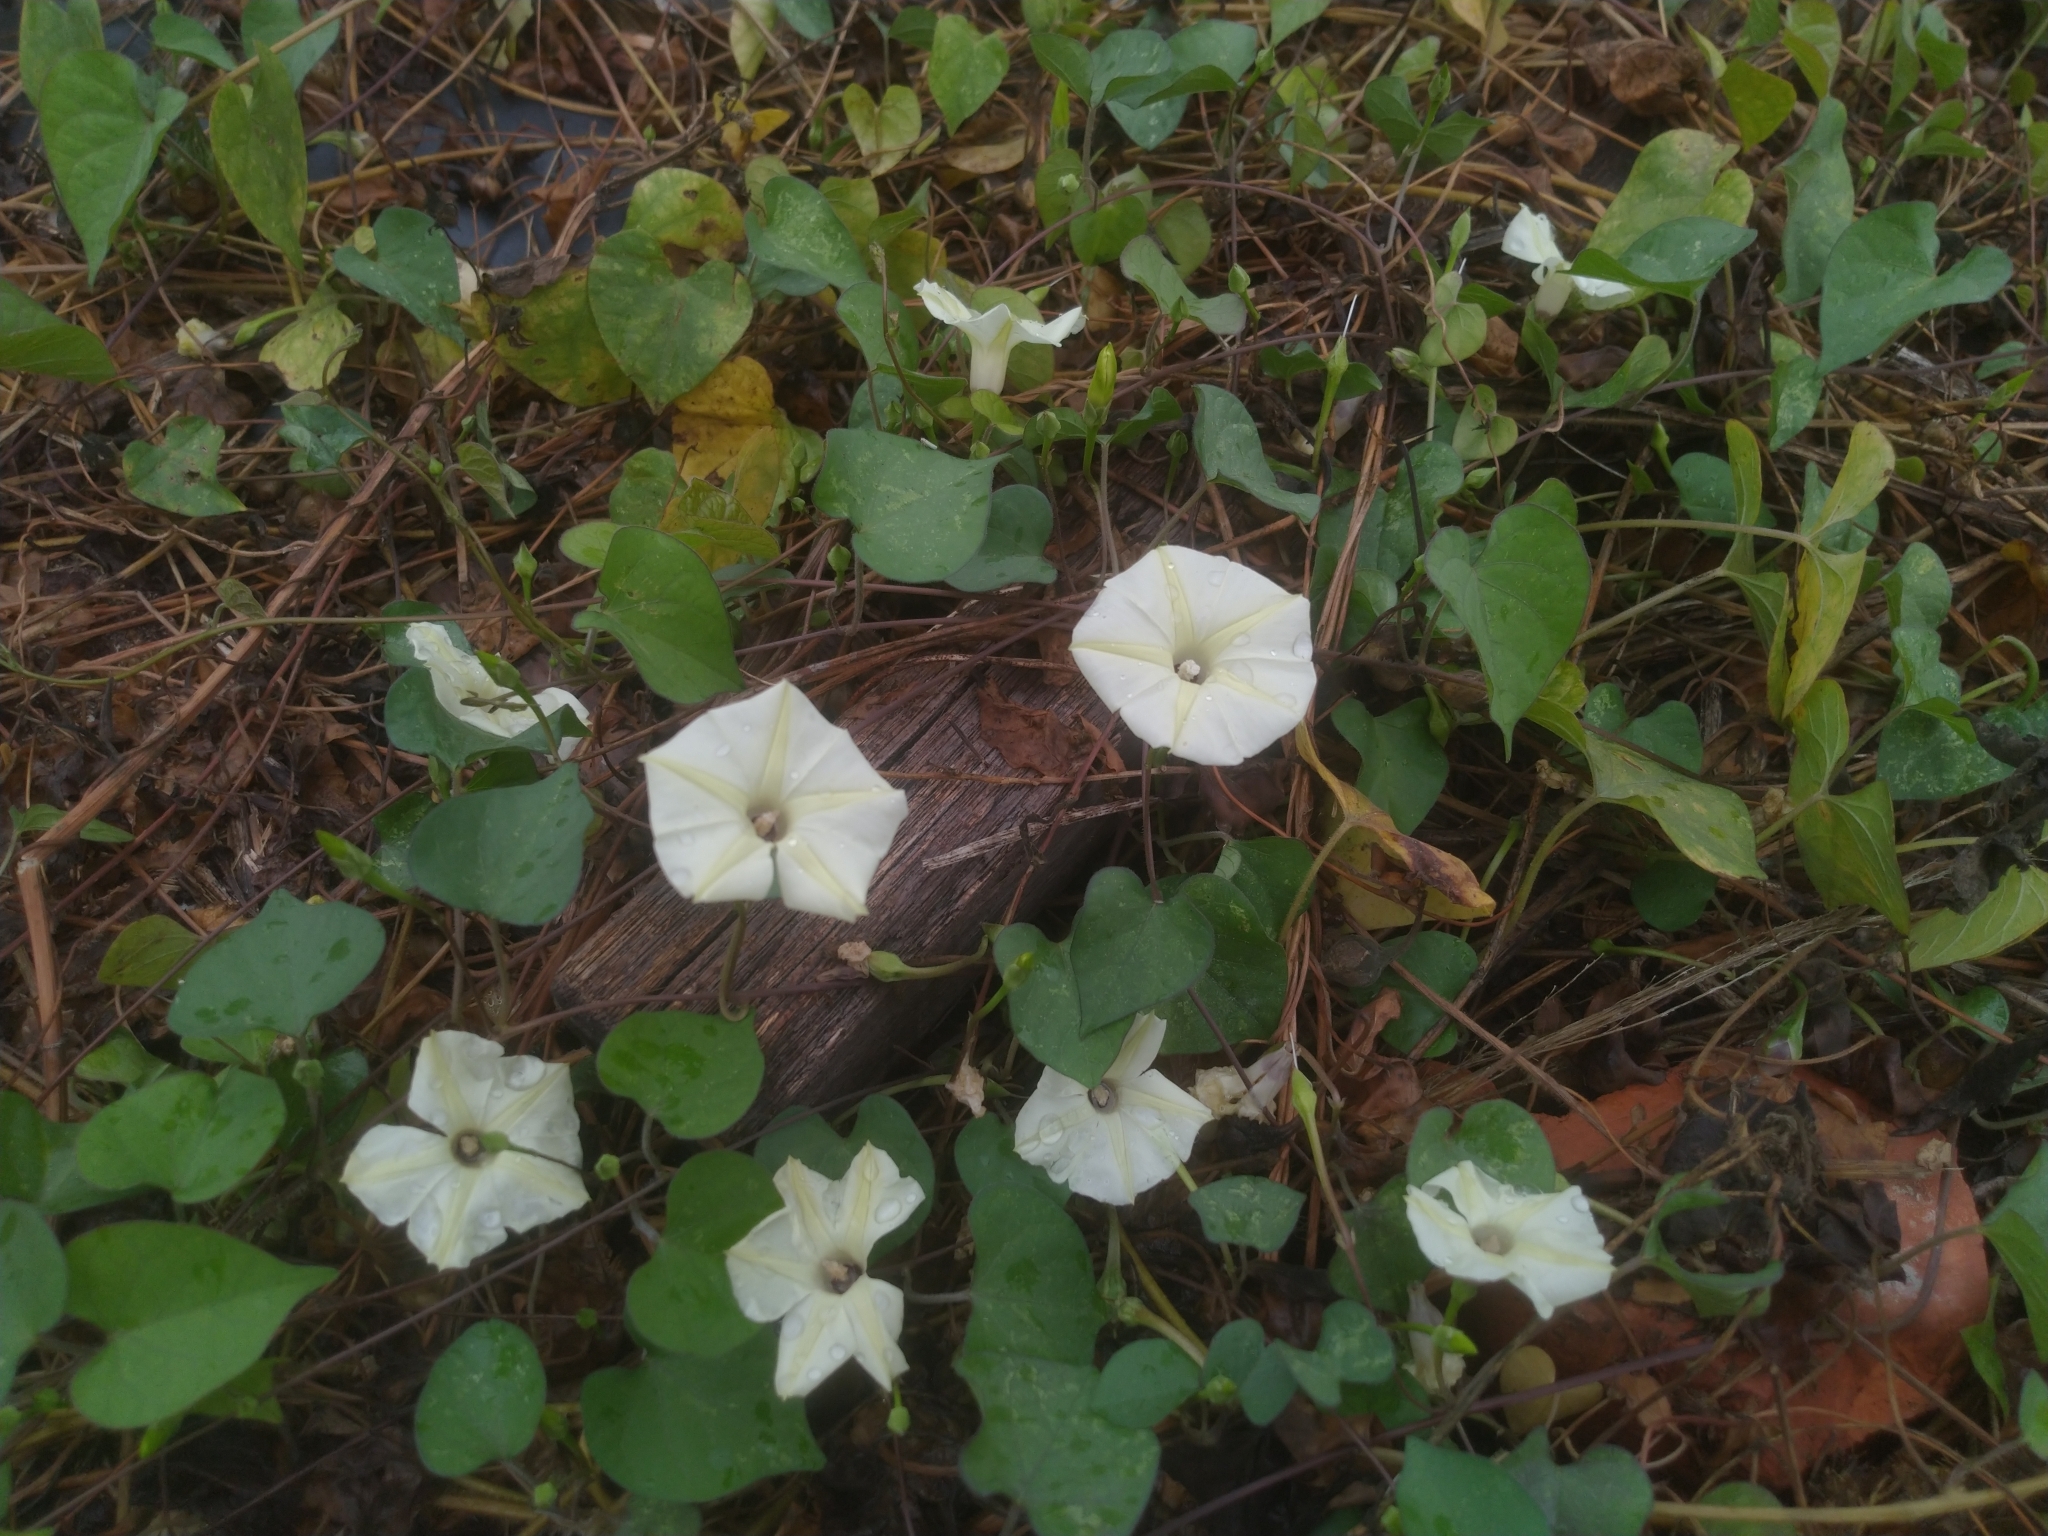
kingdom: Plantae
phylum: Tracheophyta
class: Magnoliopsida
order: Solanales
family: Convolvulaceae
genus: Ipomoea
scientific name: Ipomoea obscura
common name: Obscure morning-glory
